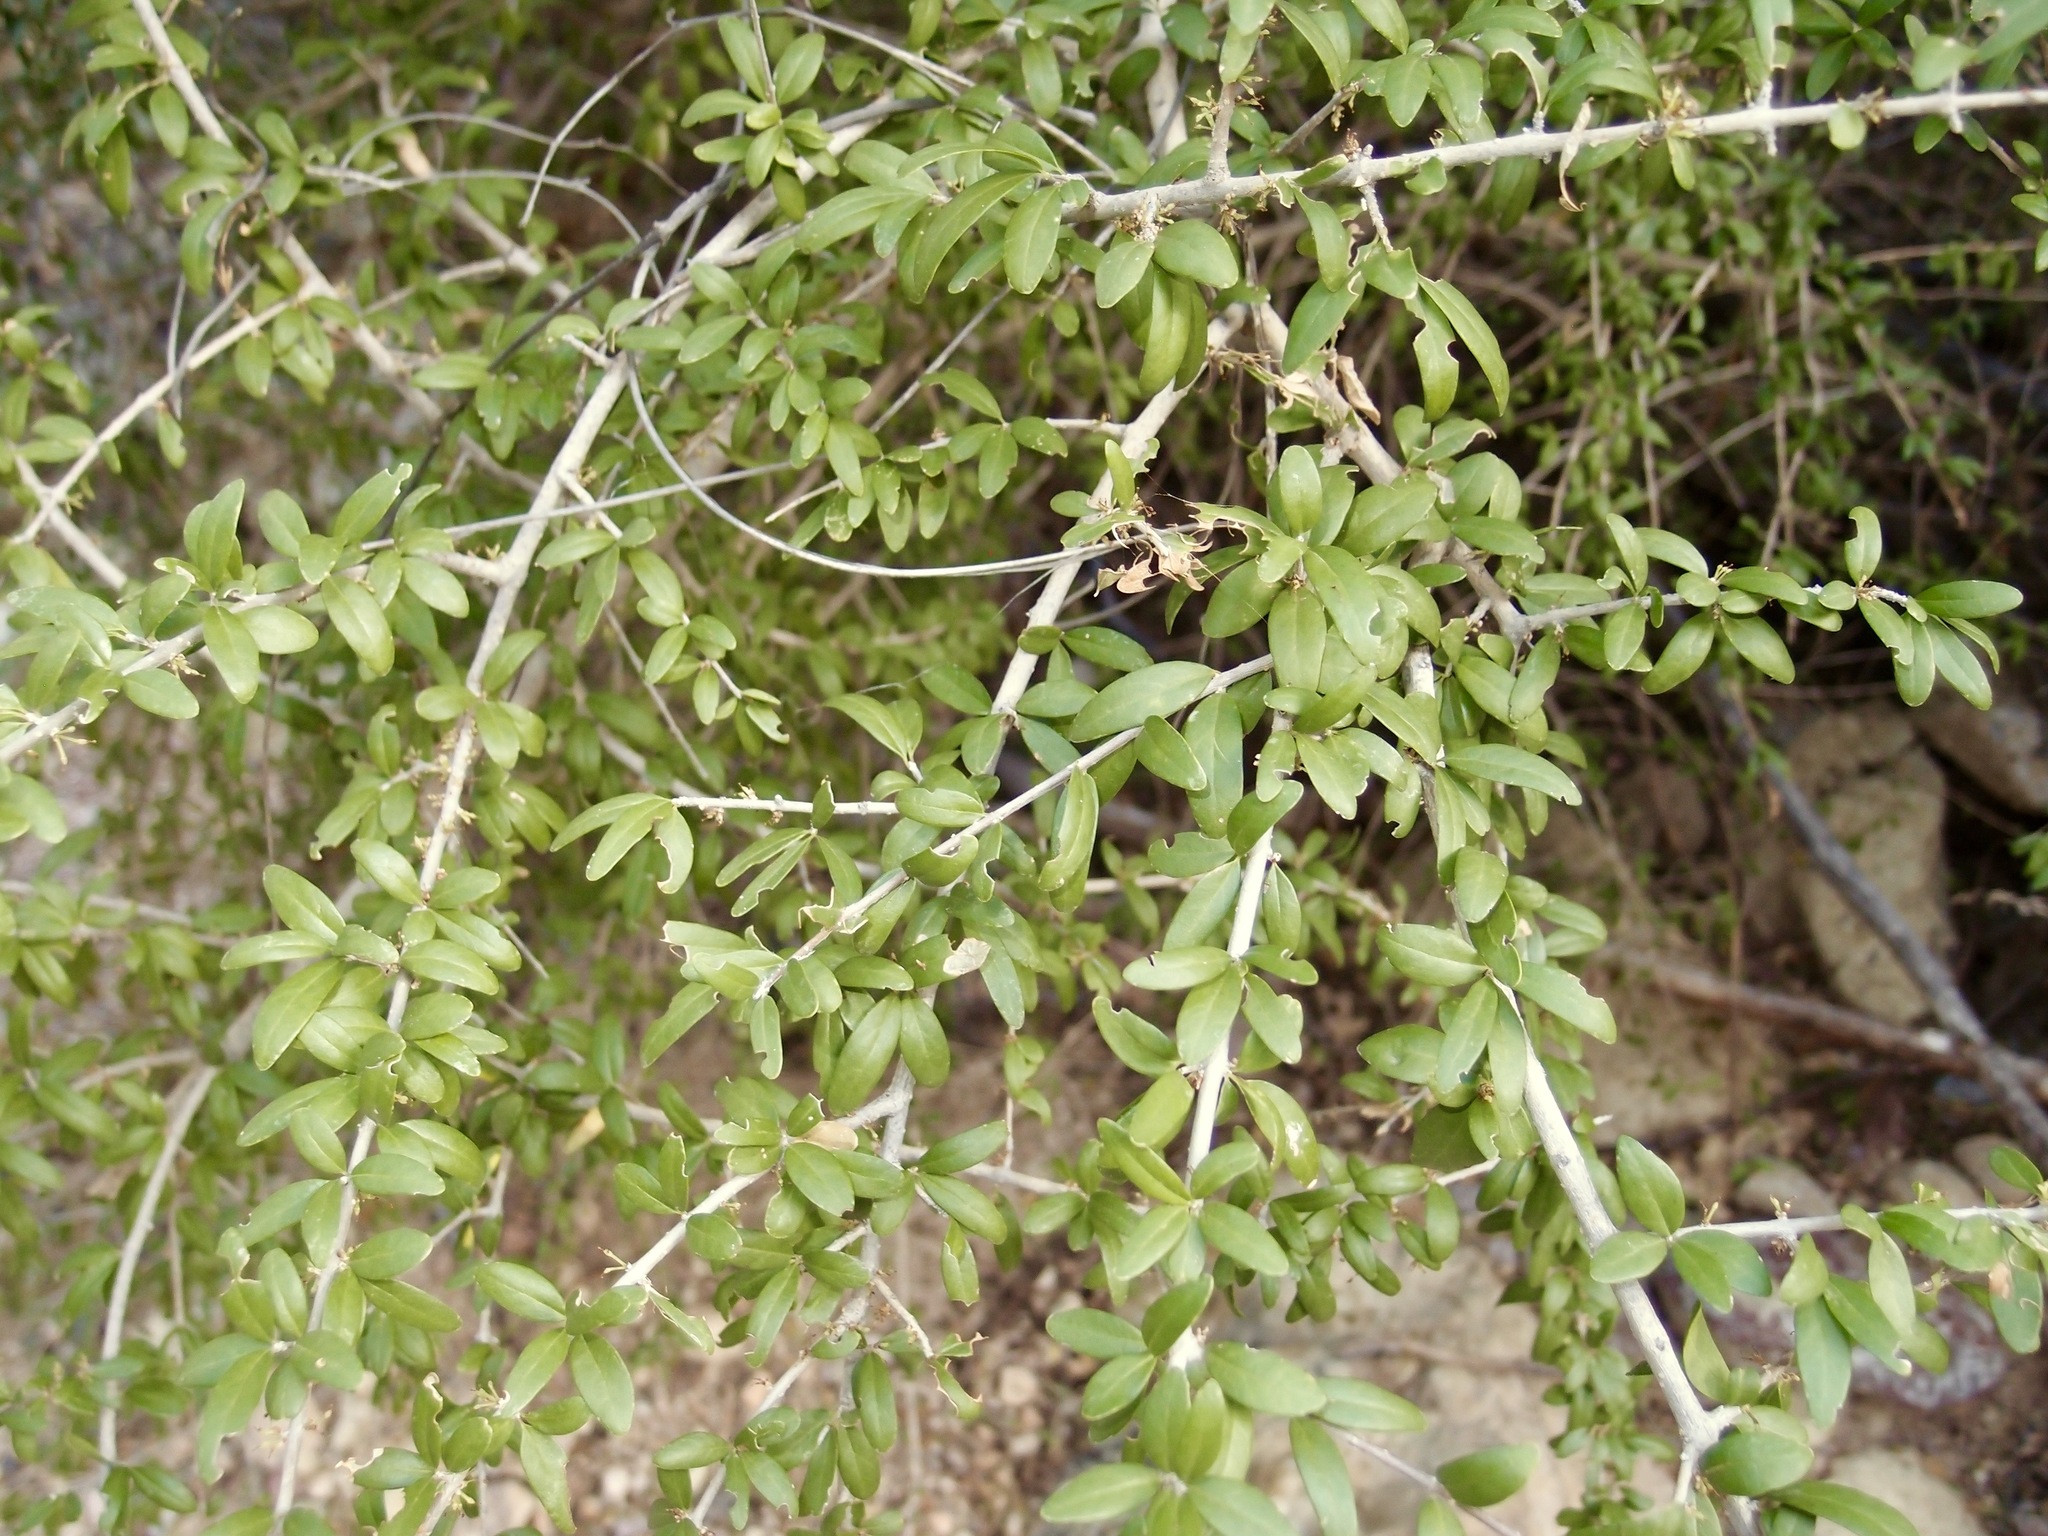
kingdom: Plantae
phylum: Tracheophyta
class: Magnoliopsida
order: Lamiales
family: Oleaceae
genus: Forestiera
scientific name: Forestiera angustifolia
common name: Elbowbush
